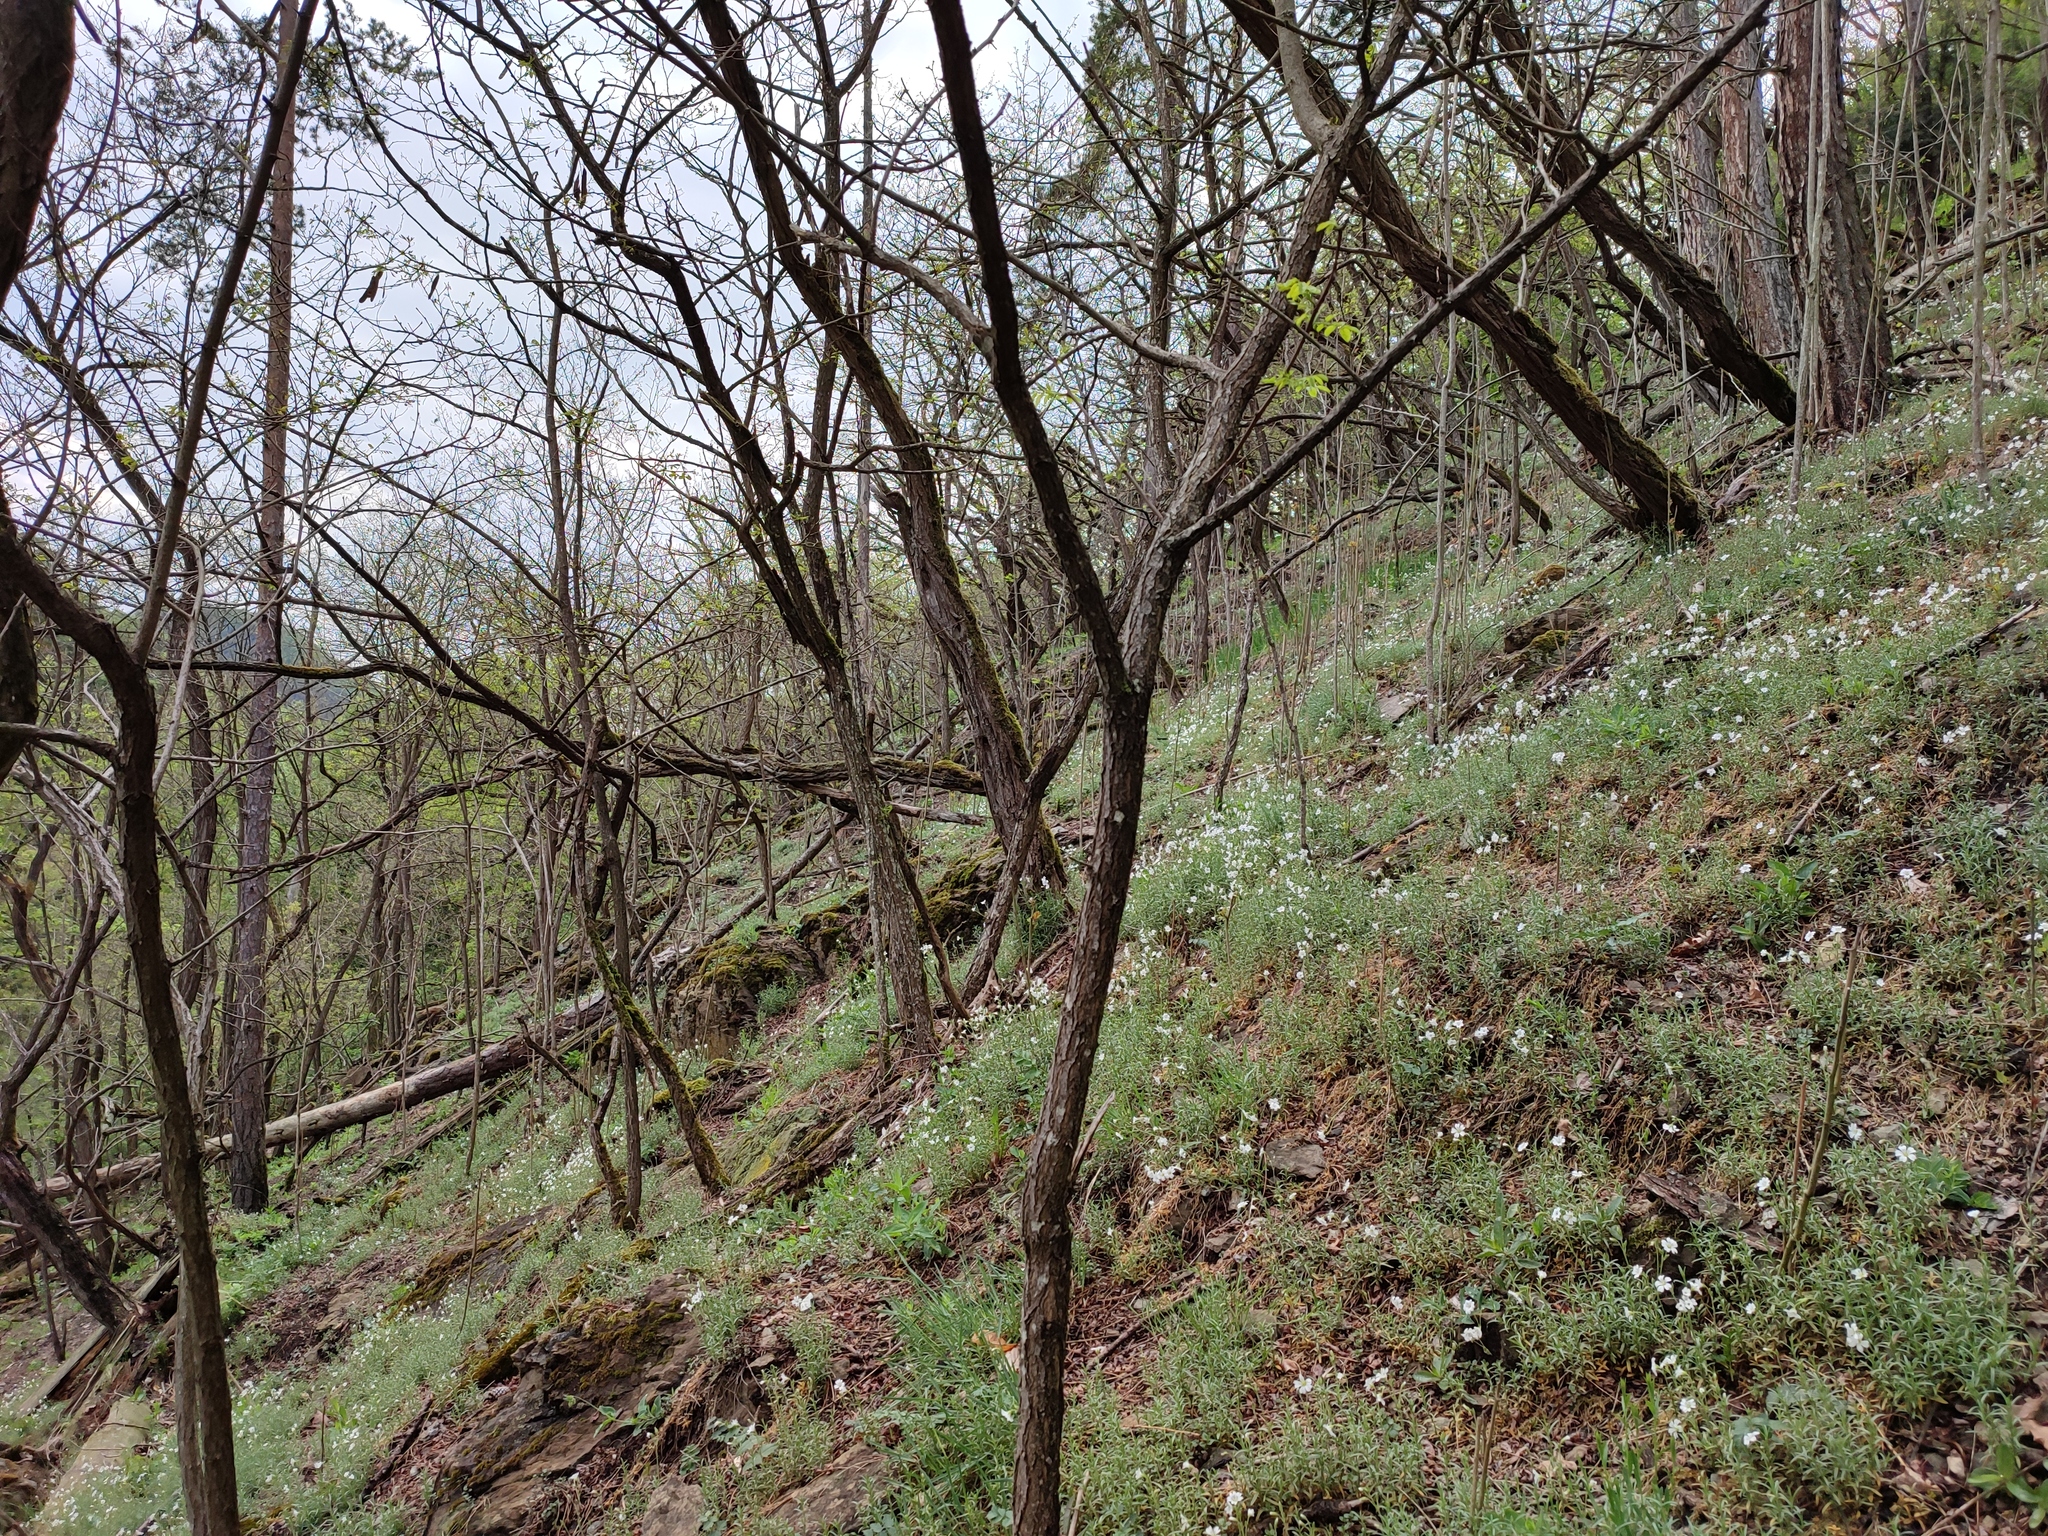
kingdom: Plantae
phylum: Tracheophyta
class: Magnoliopsida
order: Sapindales
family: Simaroubaceae
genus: Ailanthus
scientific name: Ailanthus altissima
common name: Tree-of-heaven
